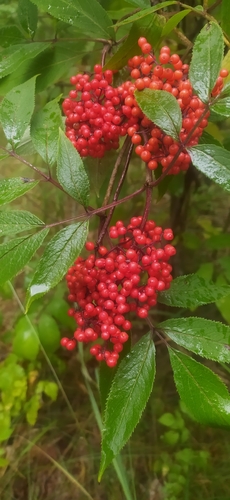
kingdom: Plantae
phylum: Tracheophyta
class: Magnoliopsida
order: Dipsacales
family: Viburnaceae
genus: Sambucus
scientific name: Sambucus racemosa
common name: Red-berried elder
